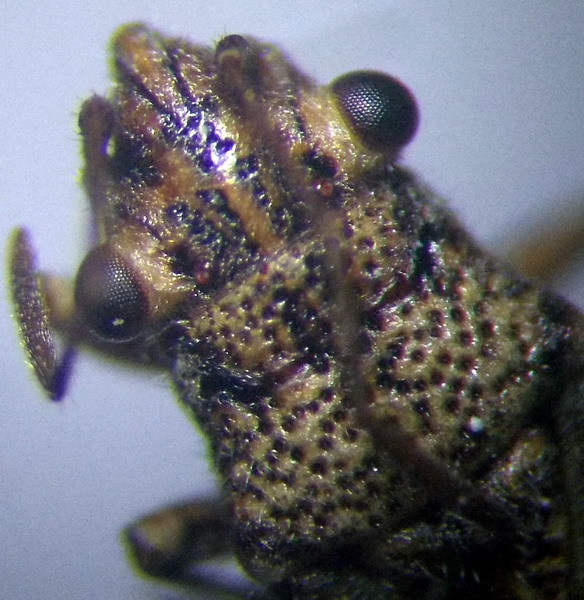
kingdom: Animalia
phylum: Arthropoda
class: Insecta
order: Hemiptera
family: Lygaeidae
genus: Ortholomus
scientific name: Ortholomus punctipennis
